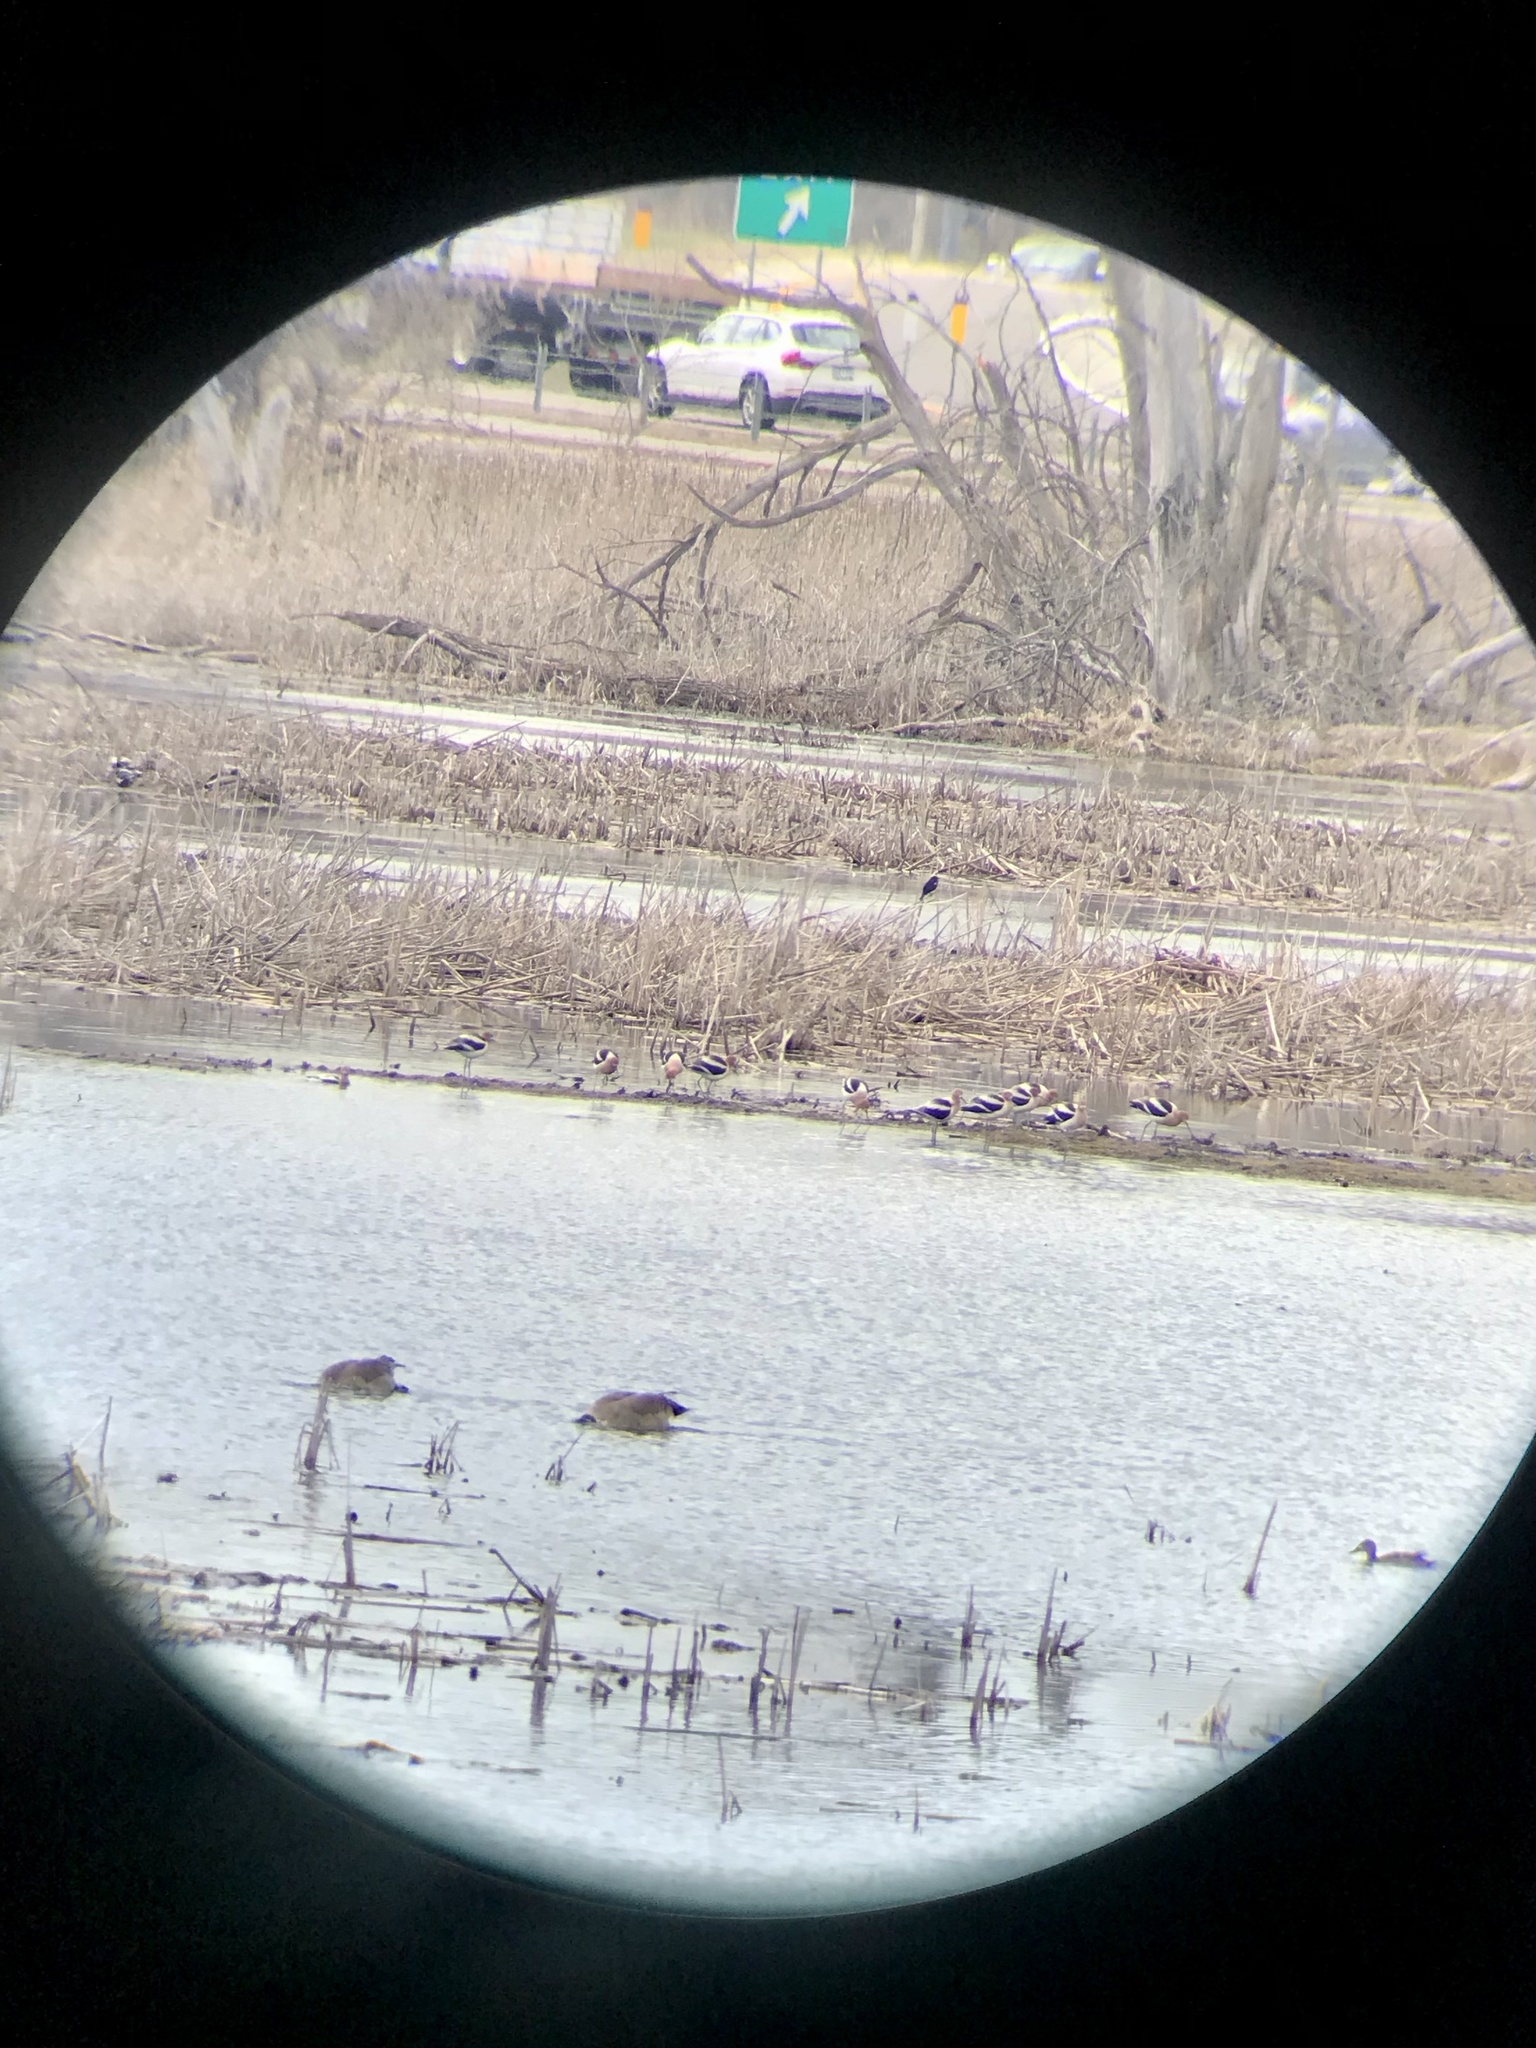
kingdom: Animalia
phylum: Chordata
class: Aves
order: Charadriiformes
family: Recurvirostridae
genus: Recurvirostra
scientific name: Recurvirostra americana
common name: American avocet
